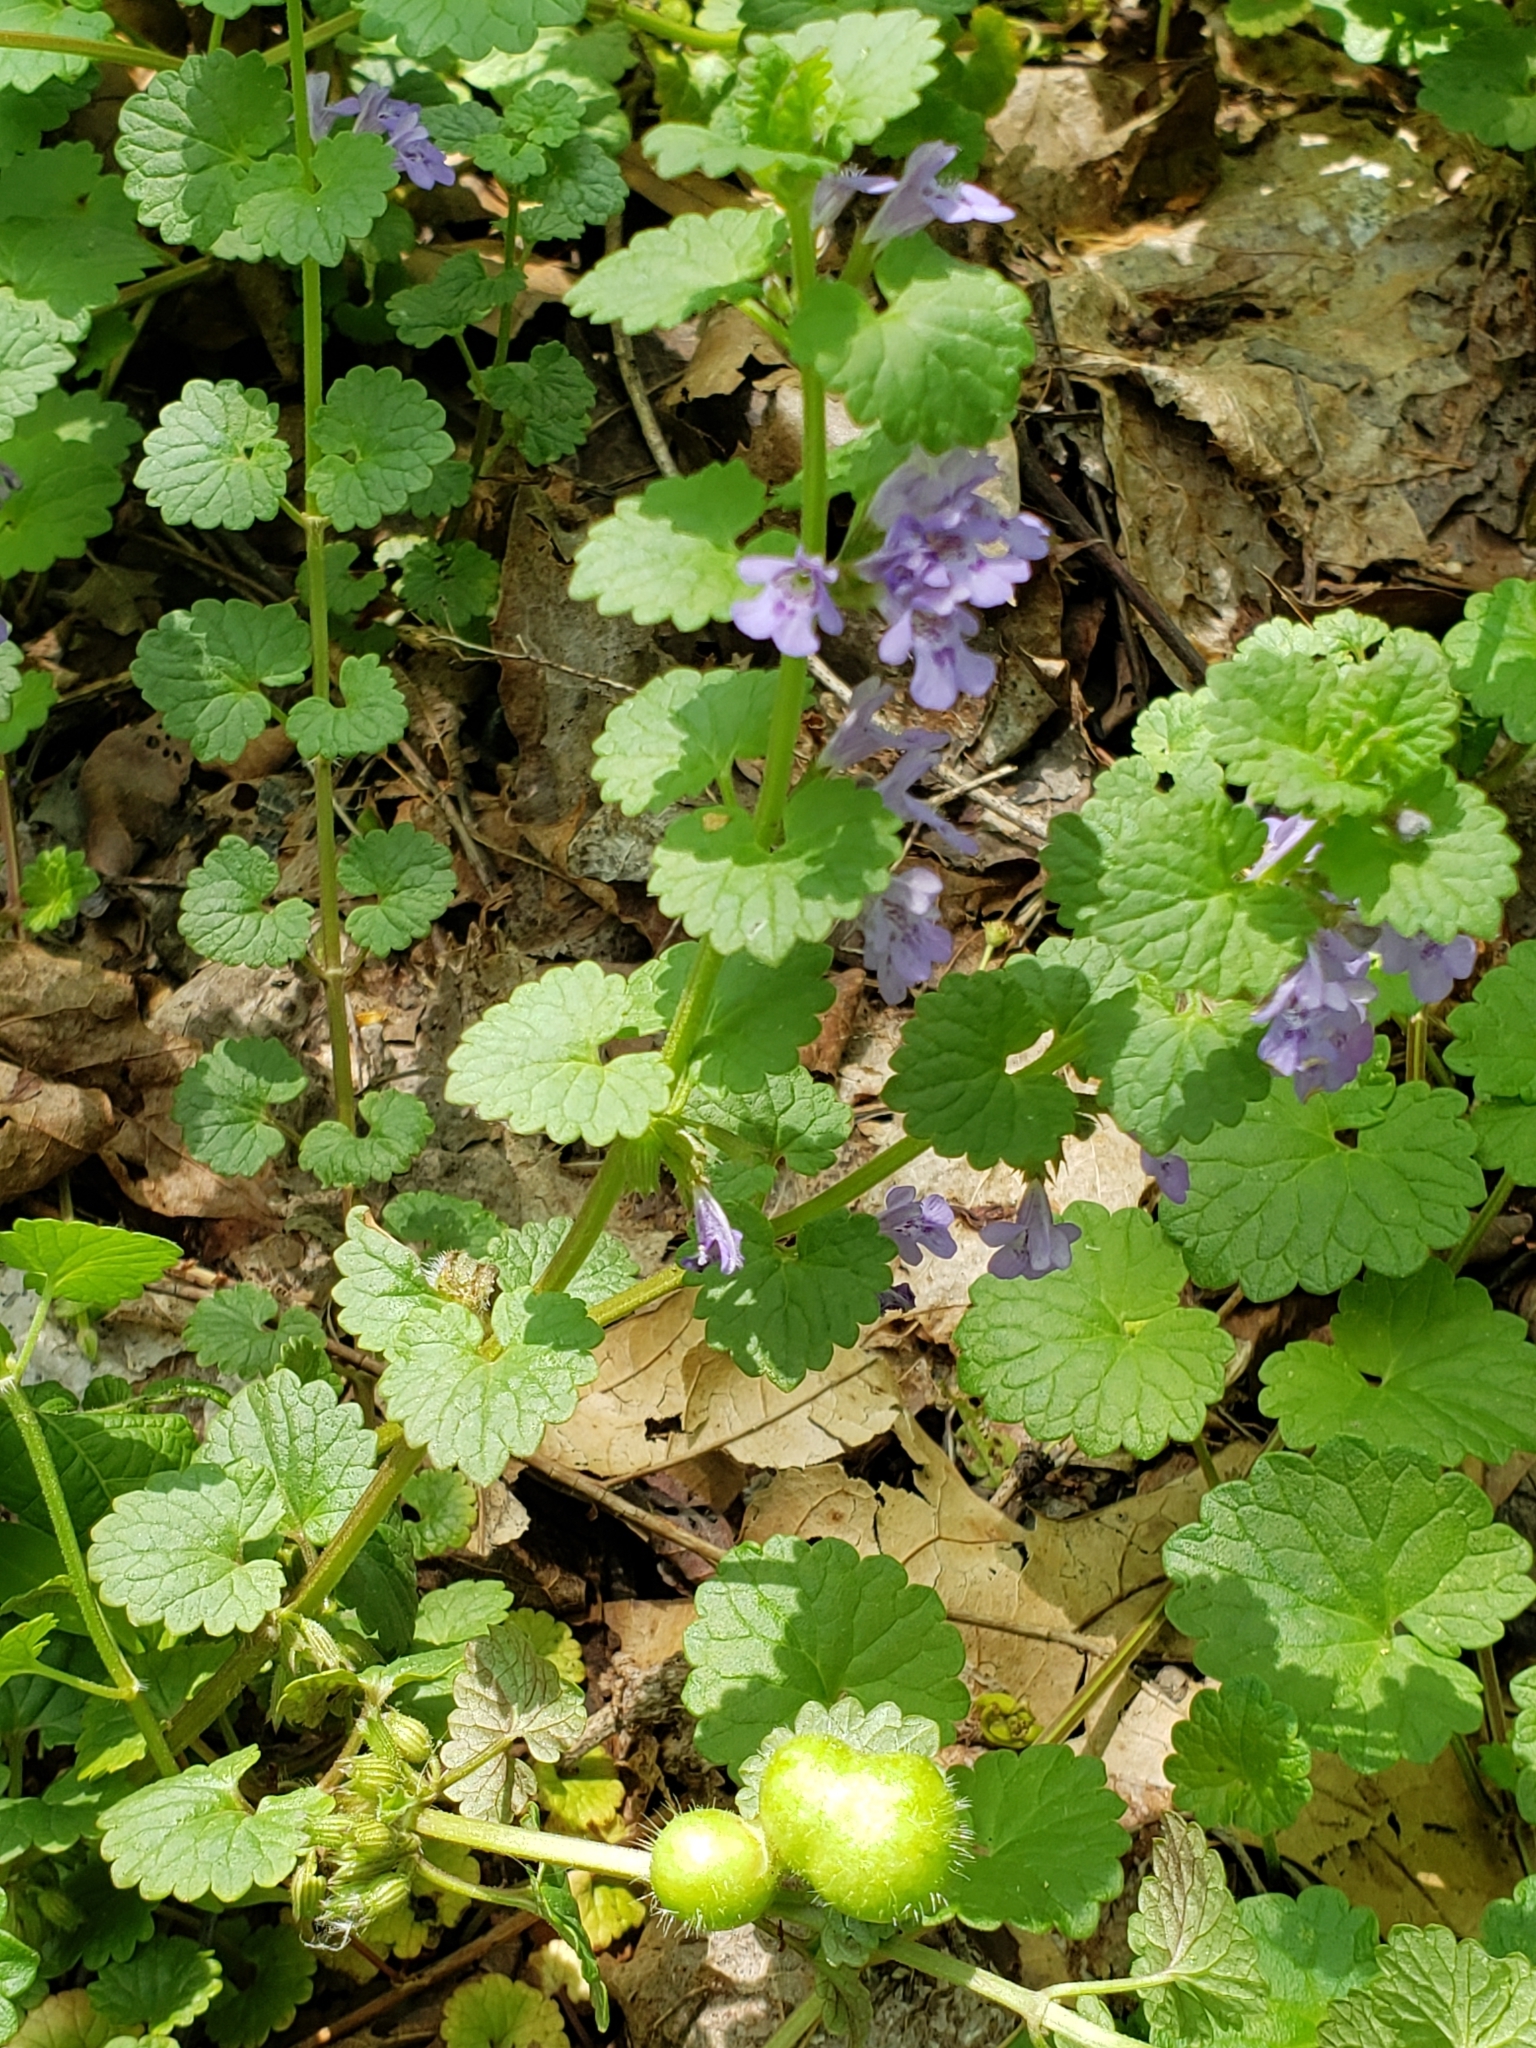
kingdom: Animalia
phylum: Arthropoda
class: Insecta
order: Hymenoptera
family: Cynipidae
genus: Liposthenes
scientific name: Liposthenes glechomae
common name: Gall wasp
